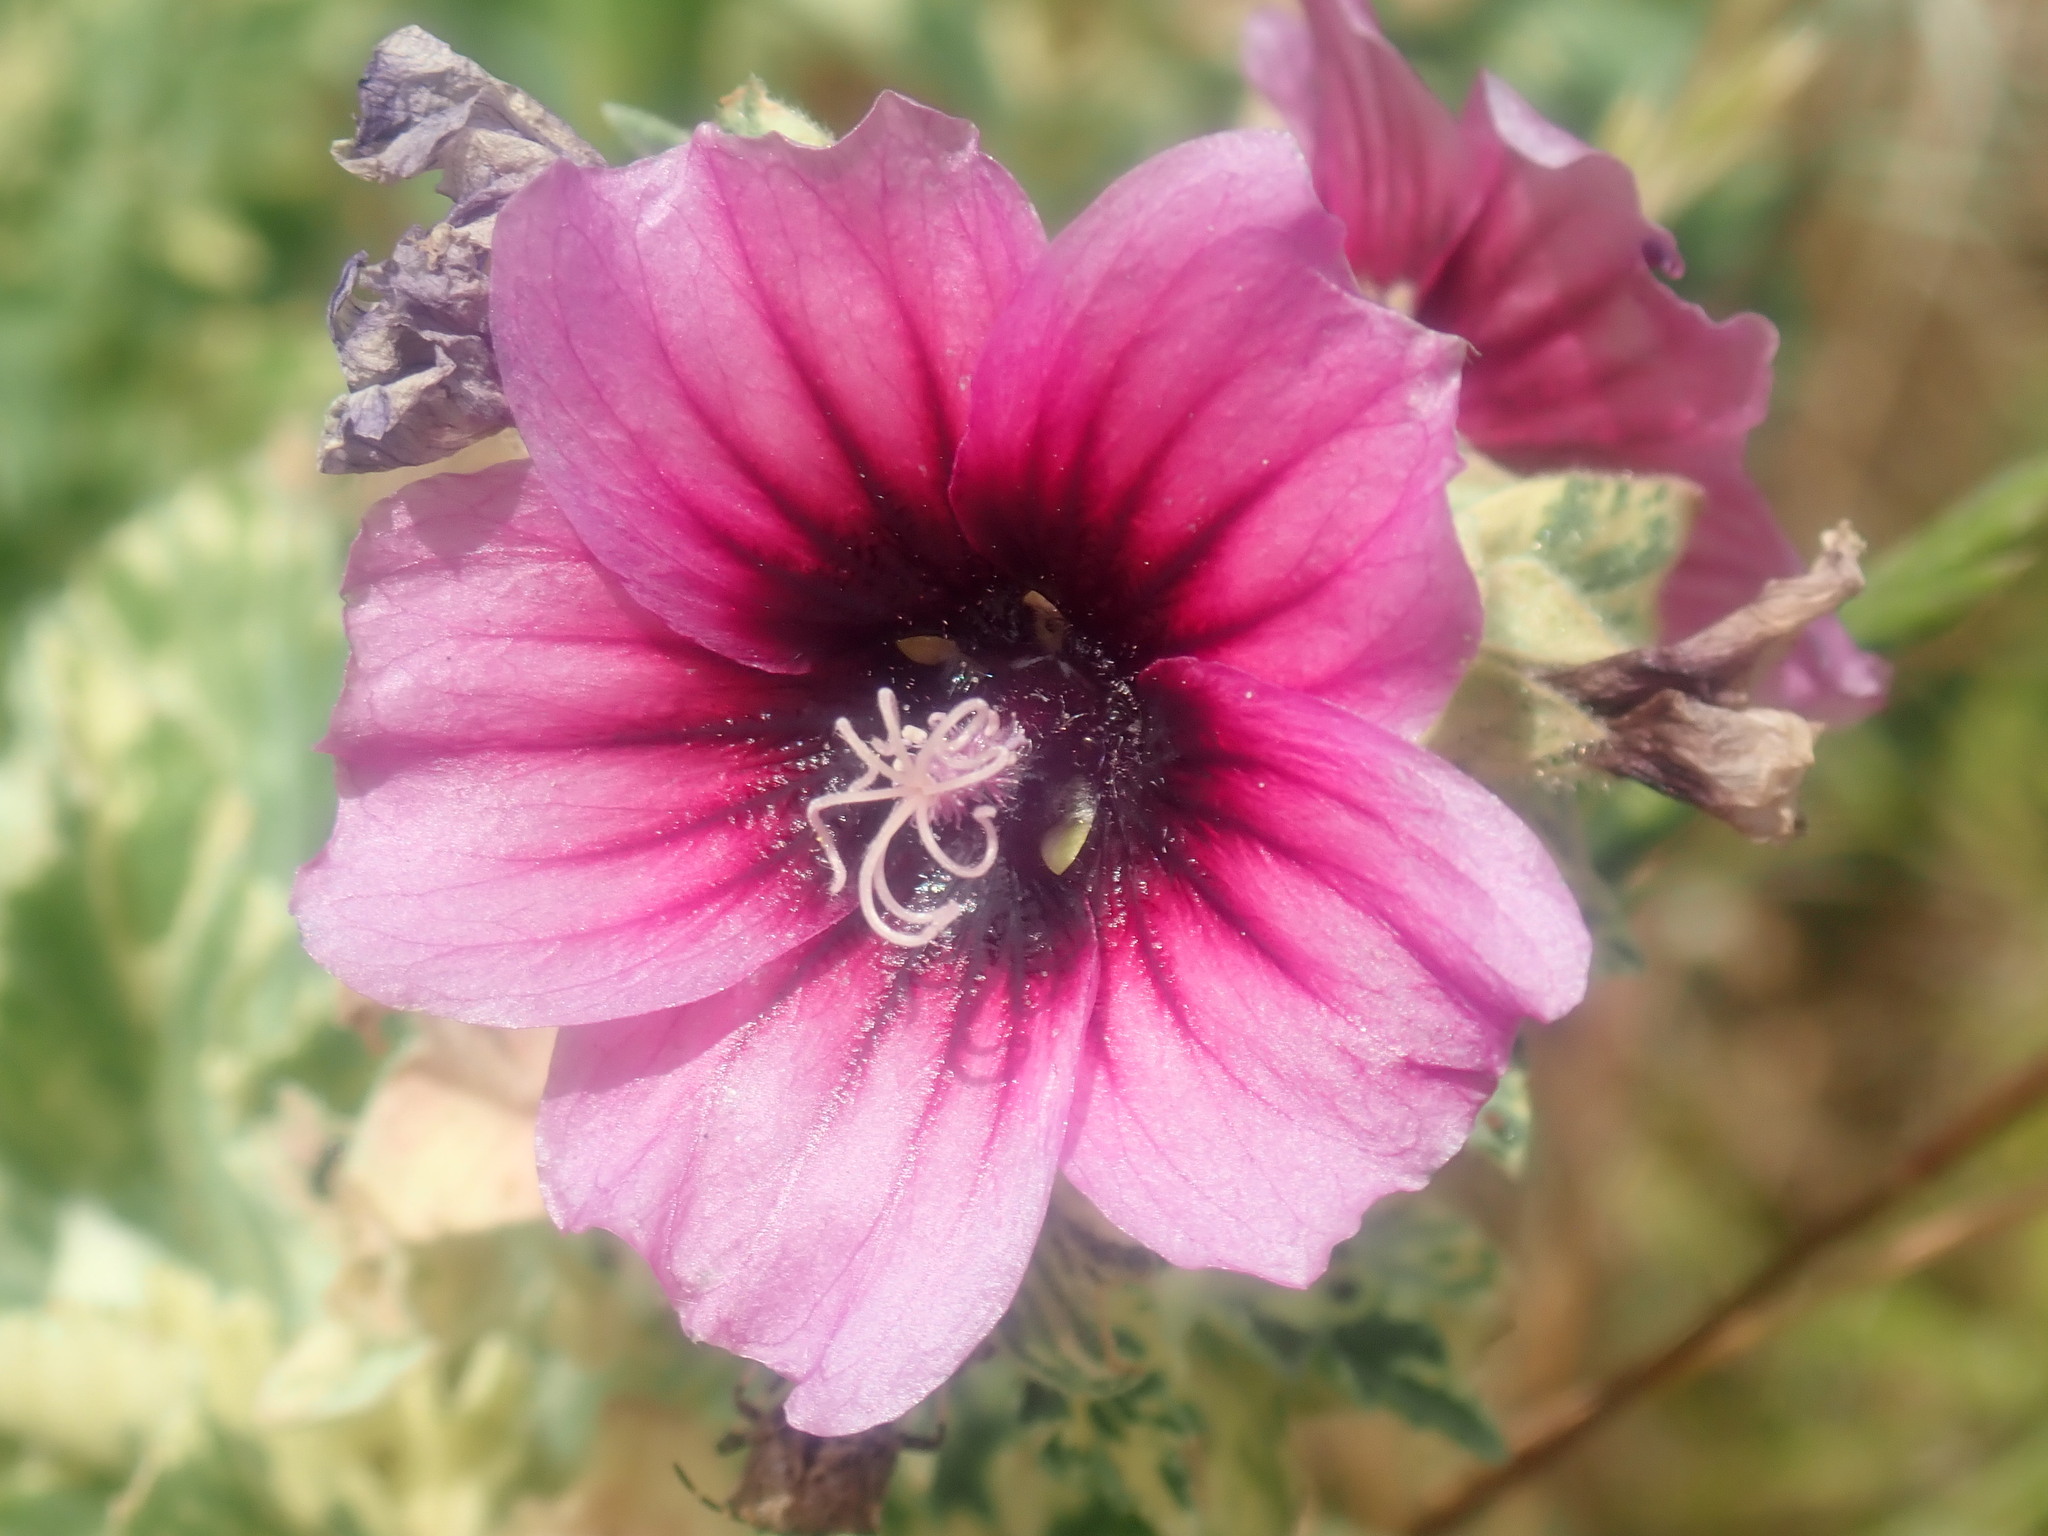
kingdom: Plantae
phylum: Tracheophyta
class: Magnoliopsida
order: Malvales
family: Malvaceae
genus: Malva
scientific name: Malva arborea
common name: Tree mallow
